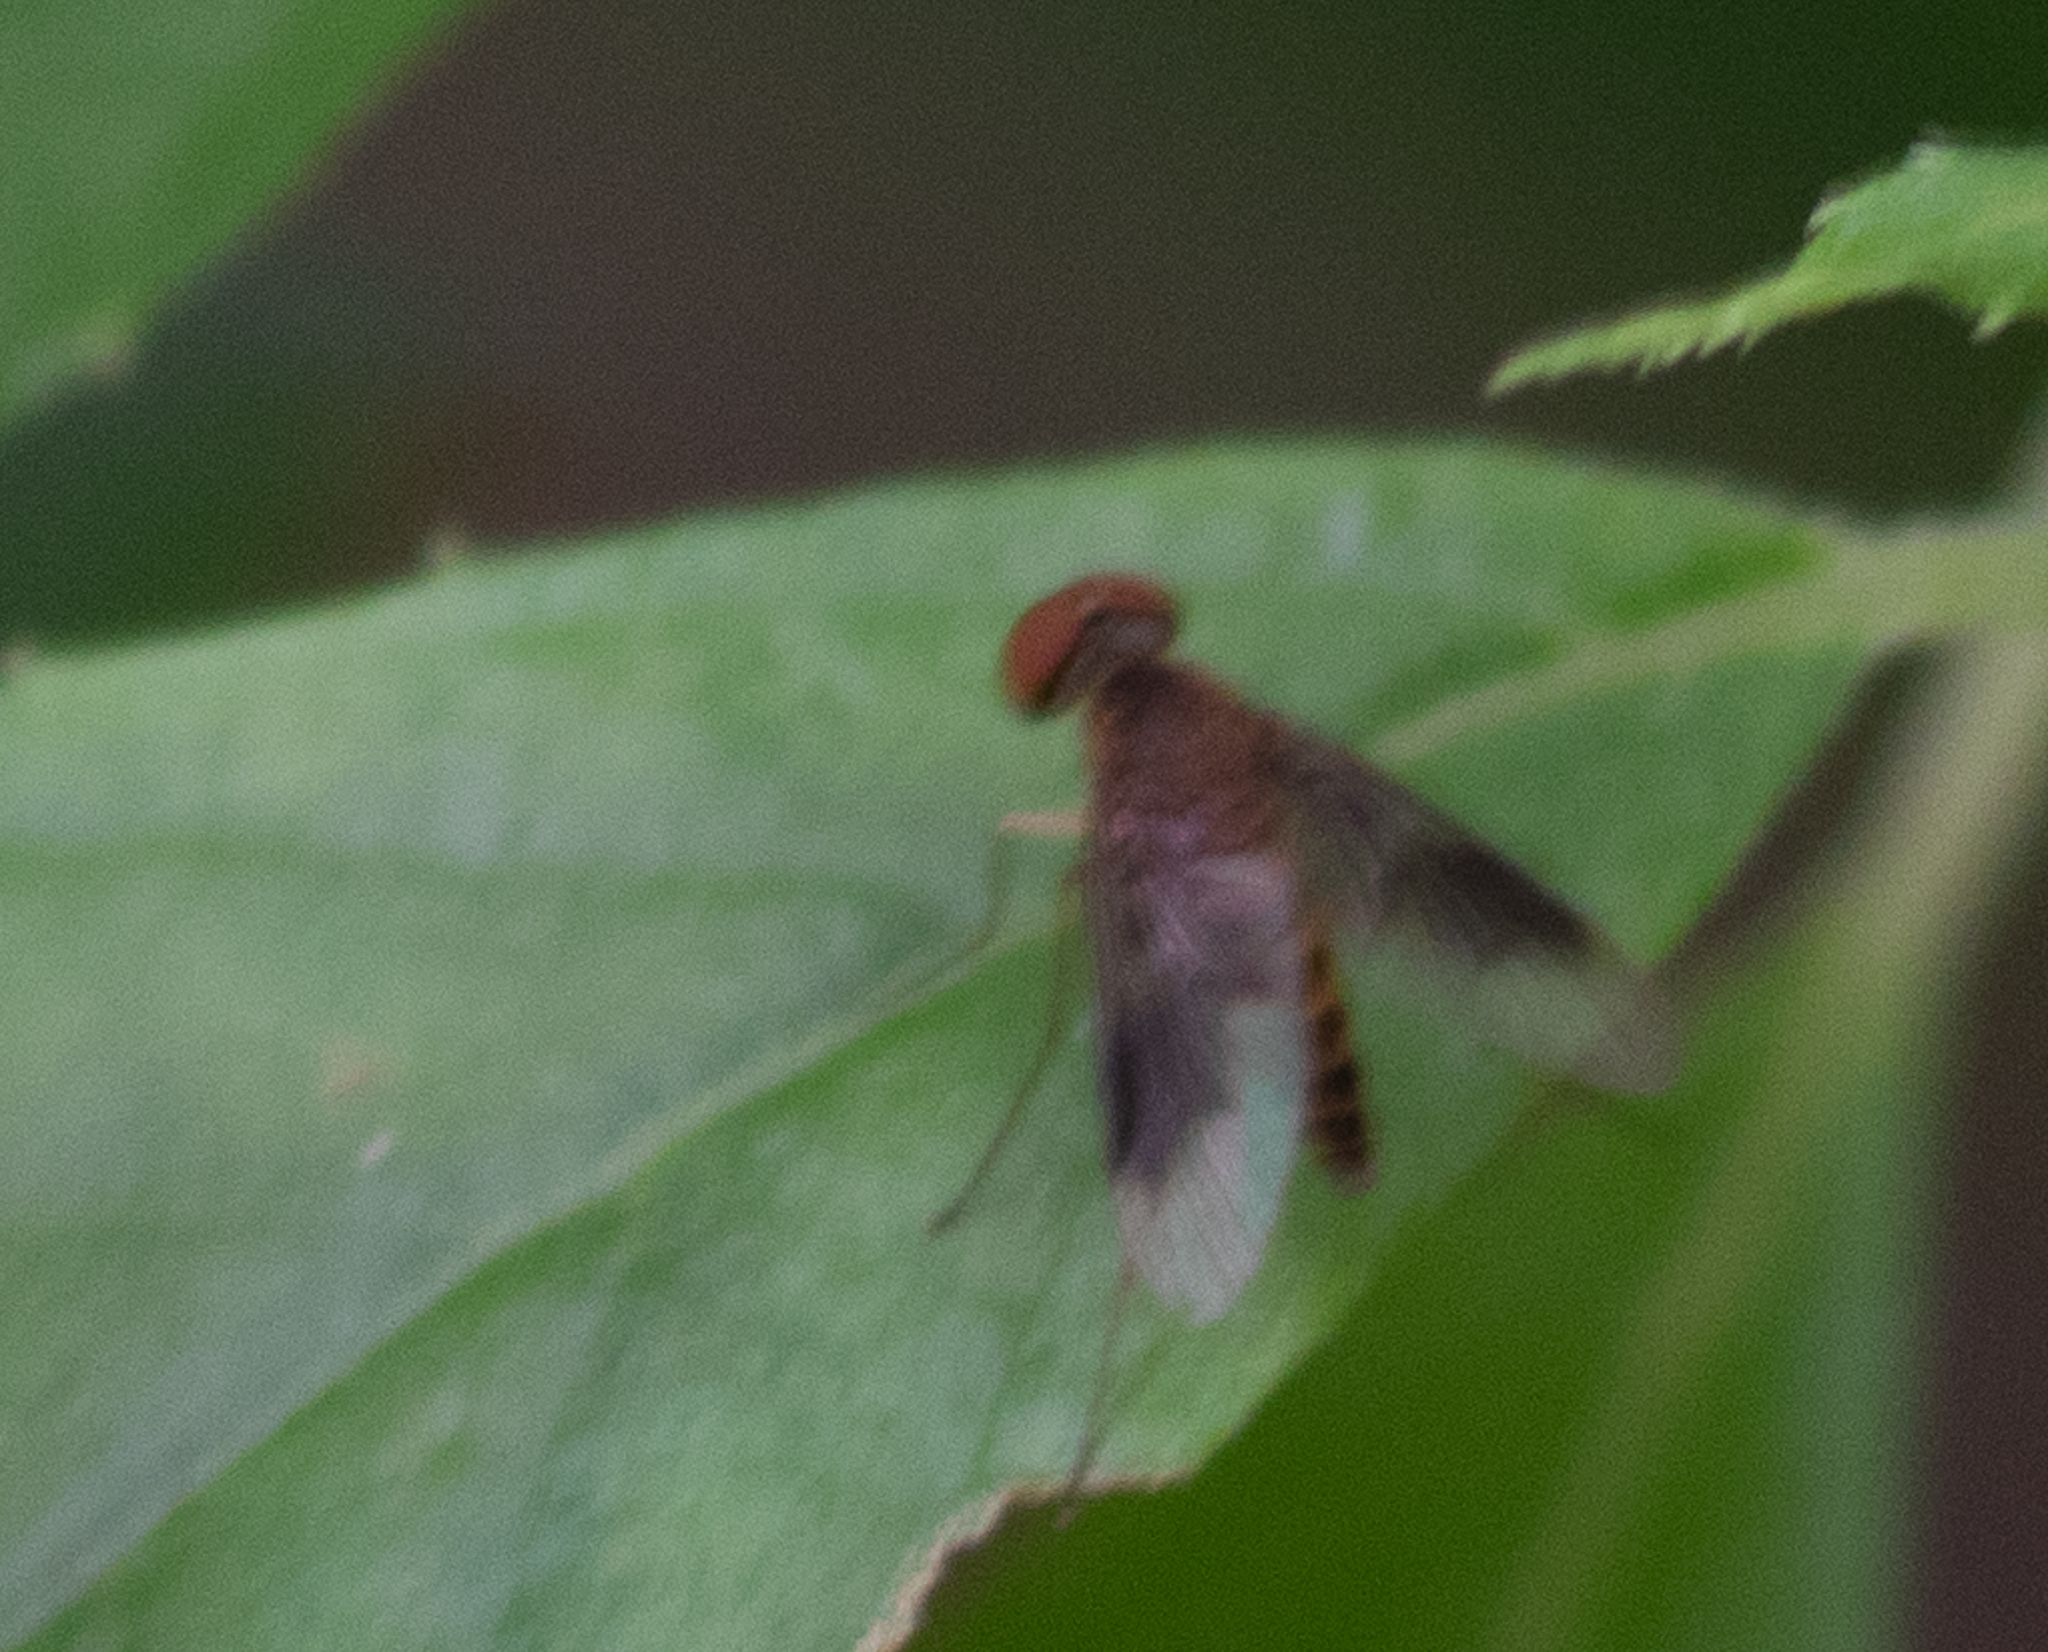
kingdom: Animalia
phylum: Arthropoda
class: Insecta
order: Diptera
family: Rhagionidae
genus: Chrysopilus
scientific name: Chrysopilus quadratus
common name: Quadrate snipe fly
